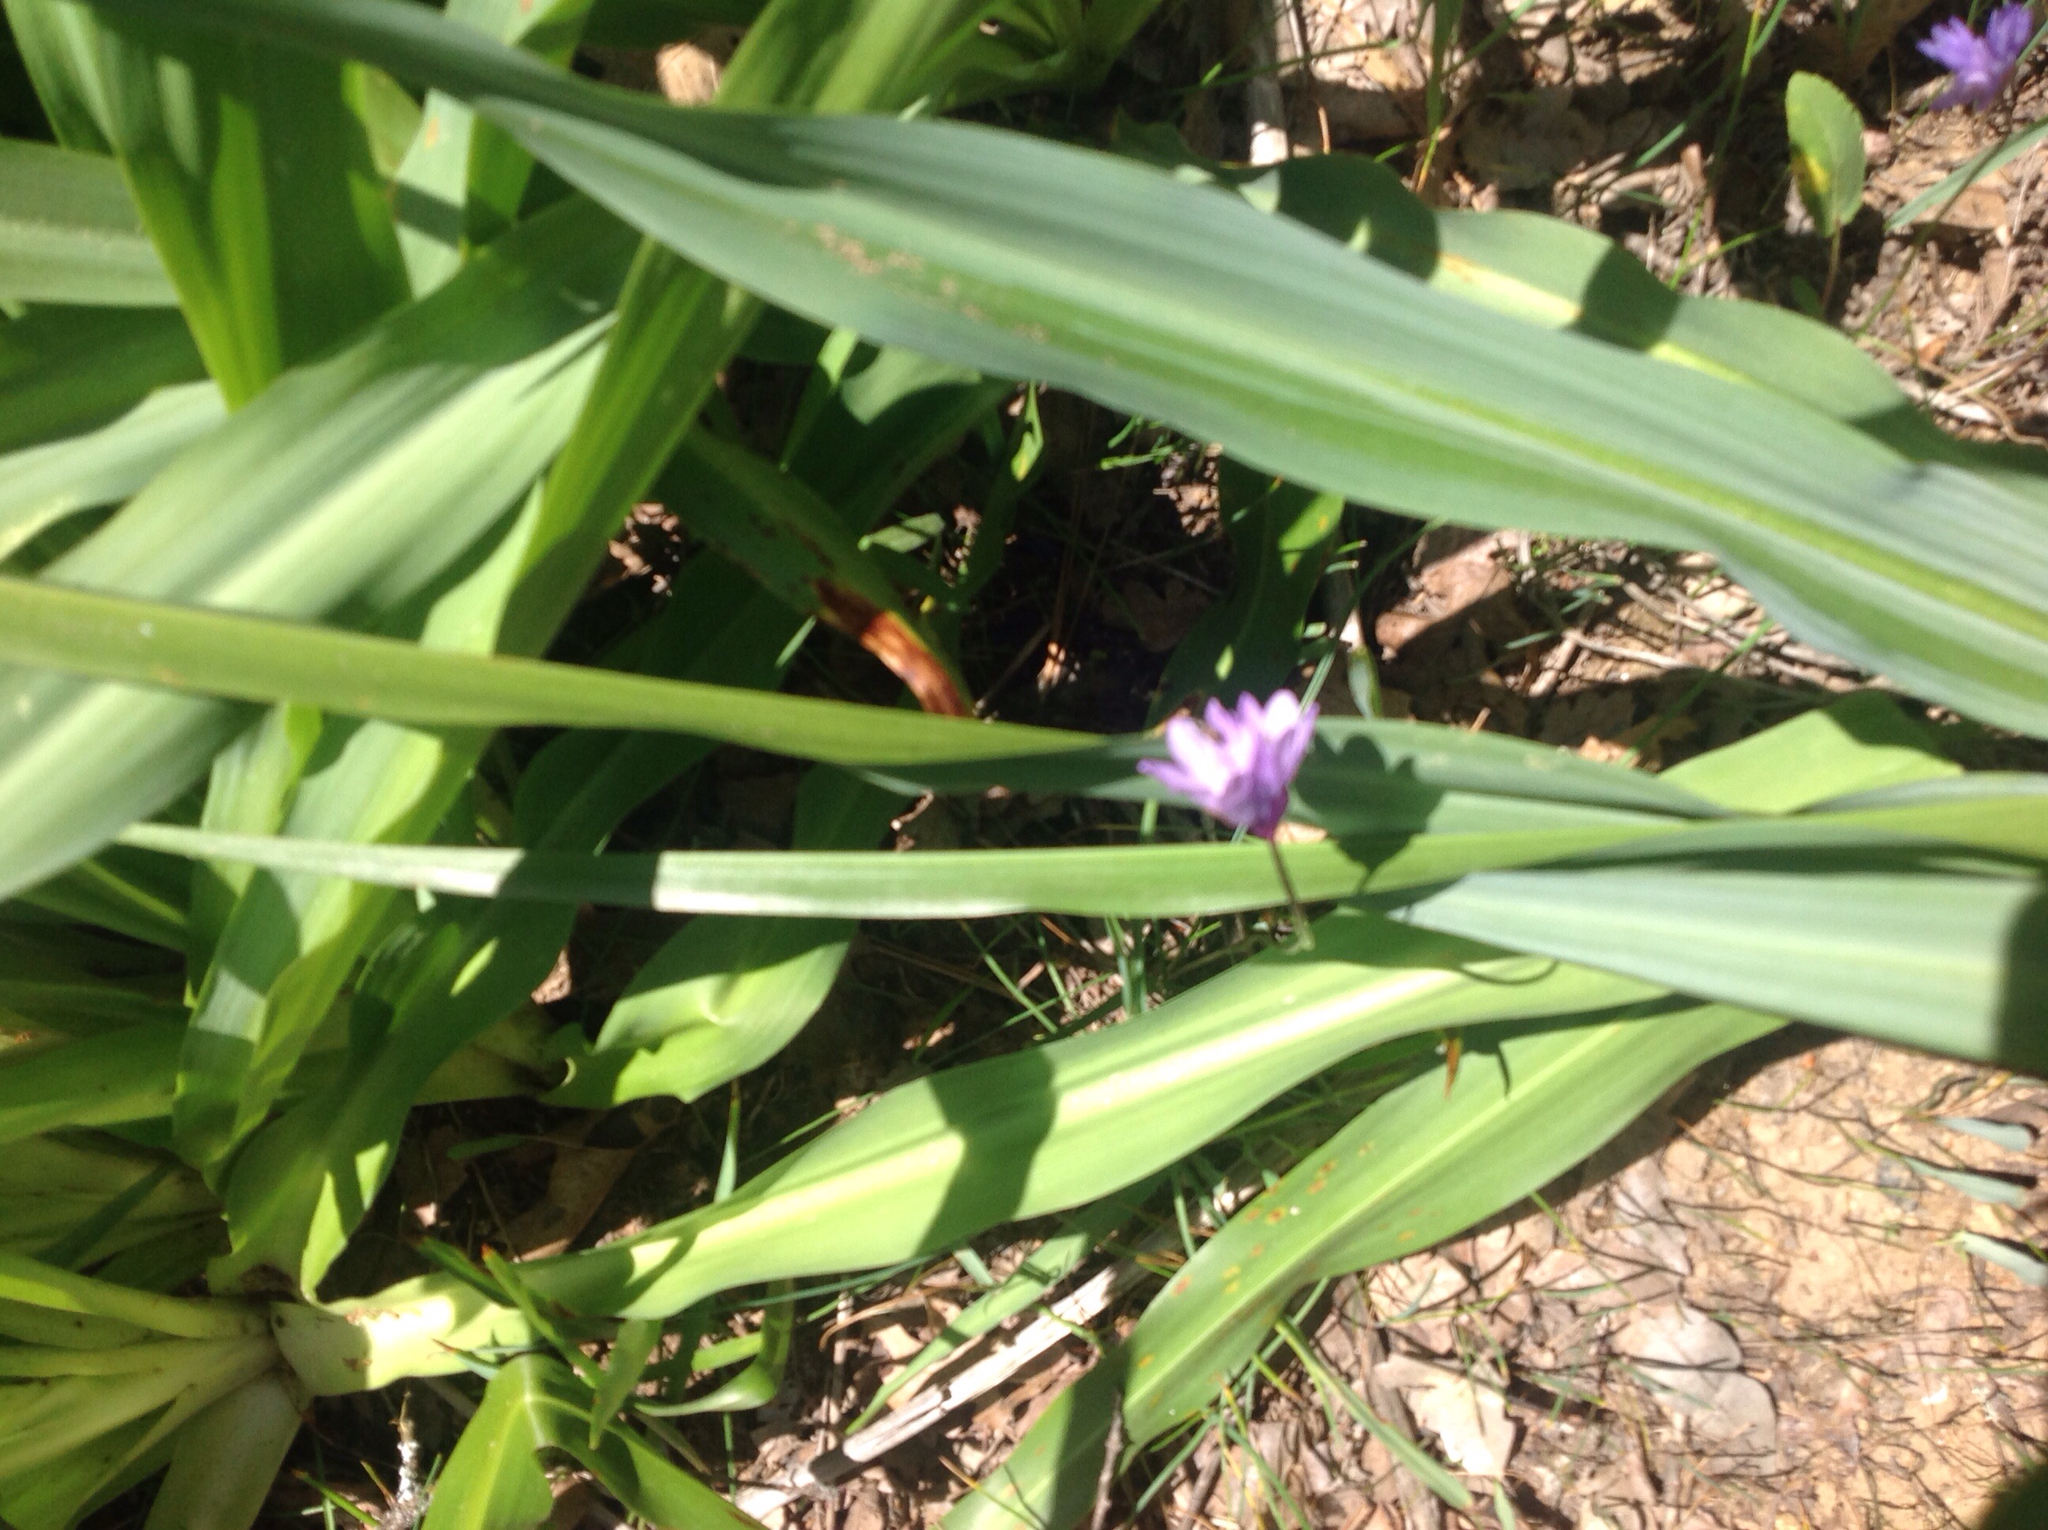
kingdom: Plantae
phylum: Tracheophyta
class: Liliopsida
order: Asparagales
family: Asparagaceae
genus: Dipterostemon
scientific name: Dipterostemon capitatus
